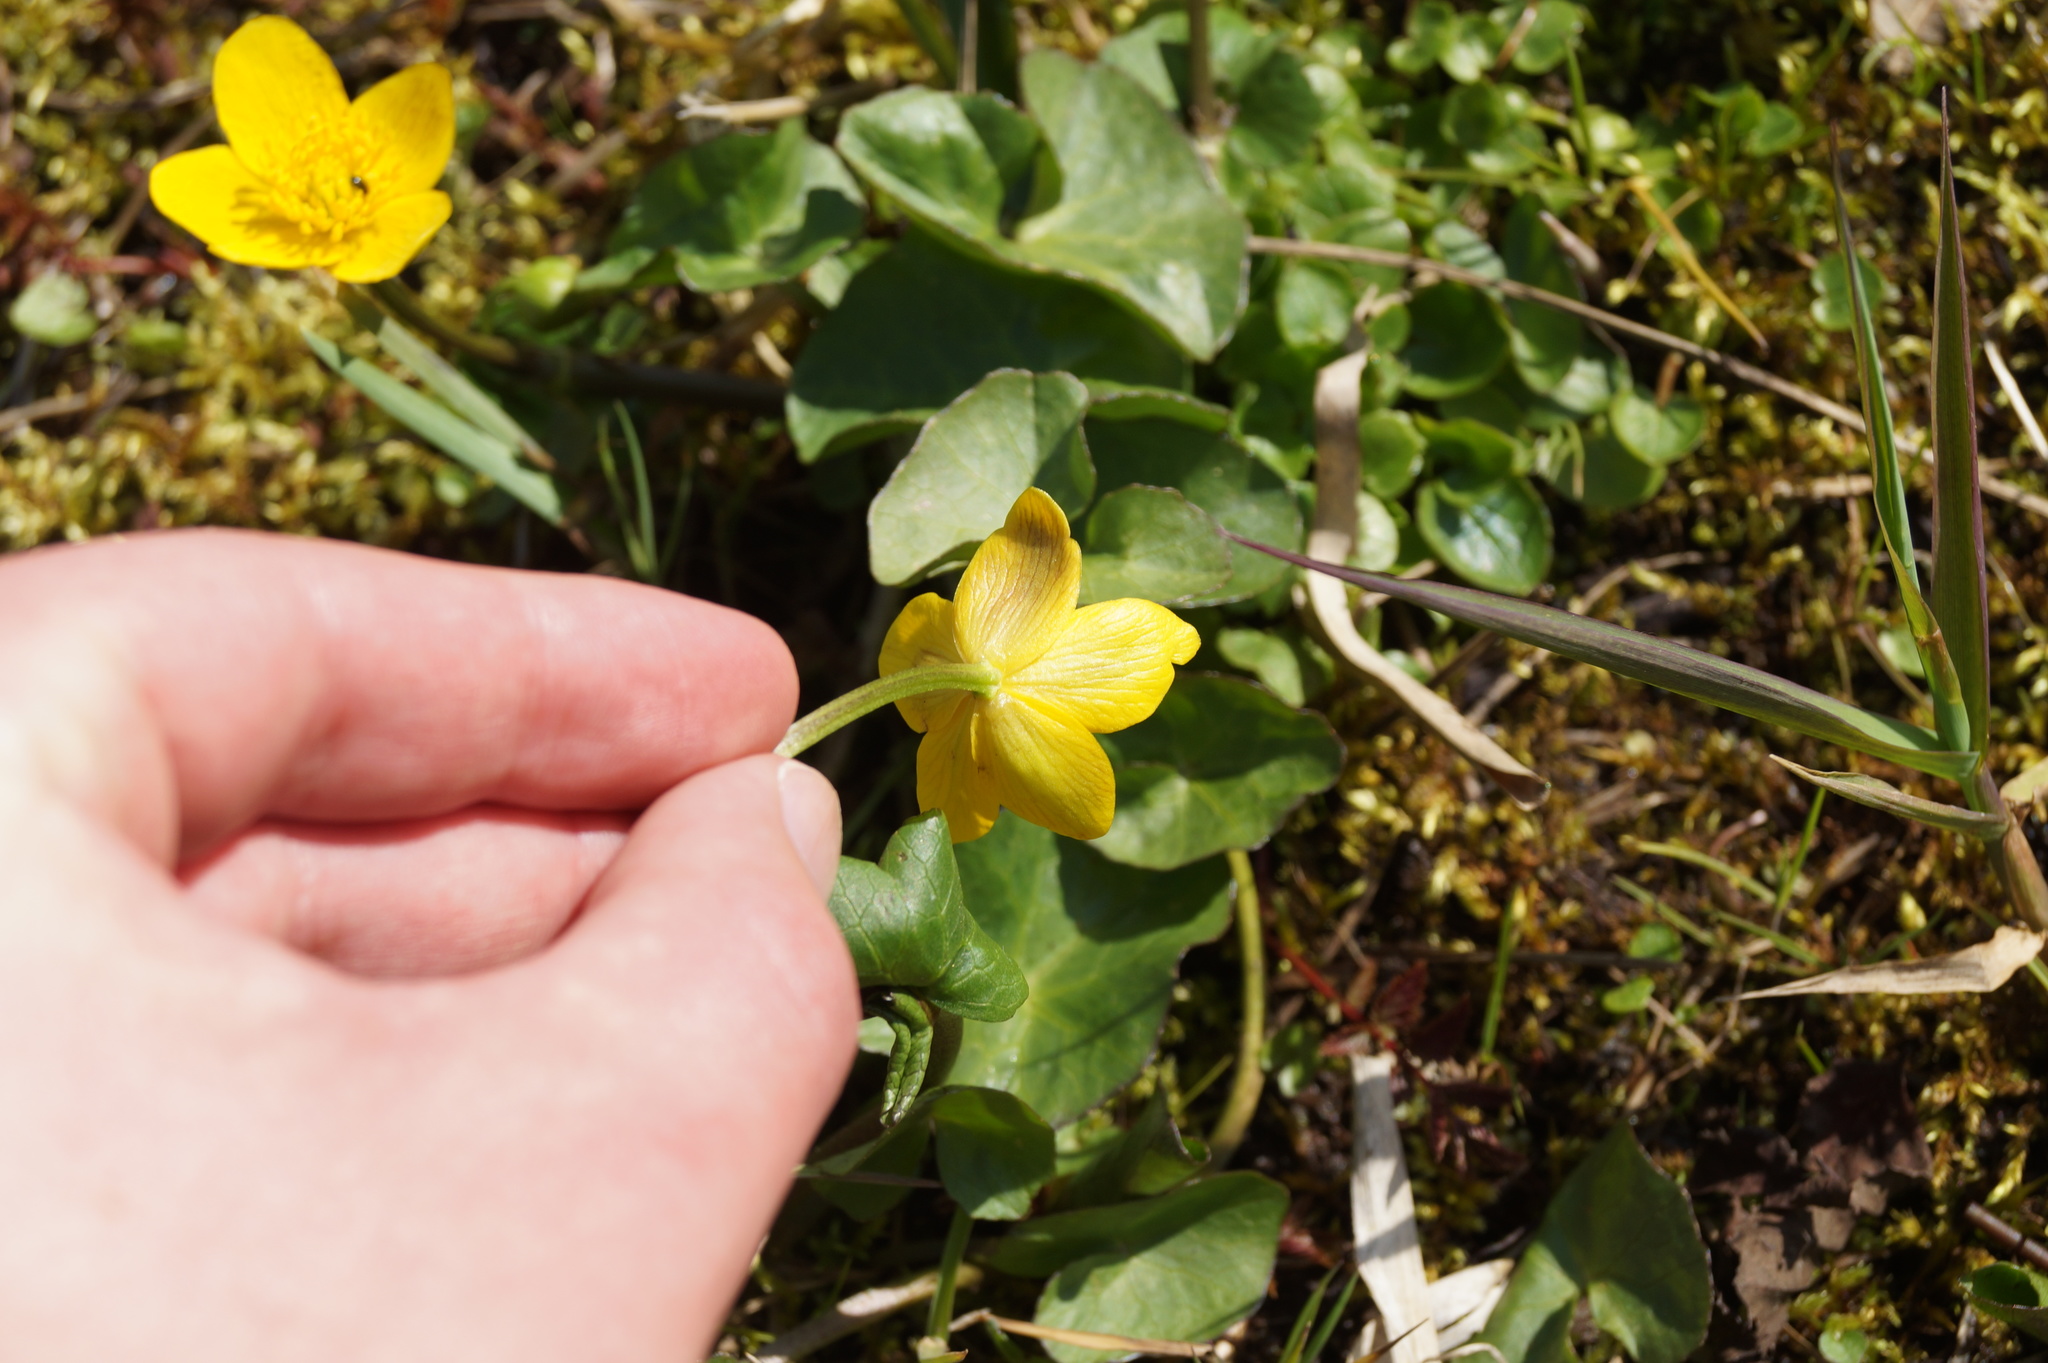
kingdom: Plantae
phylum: Tracheophyta
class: Magnoliopsida
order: Ranunculales
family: Ranunculaceae
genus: Caltha
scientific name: Caltha palustris
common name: Marsh marigold
